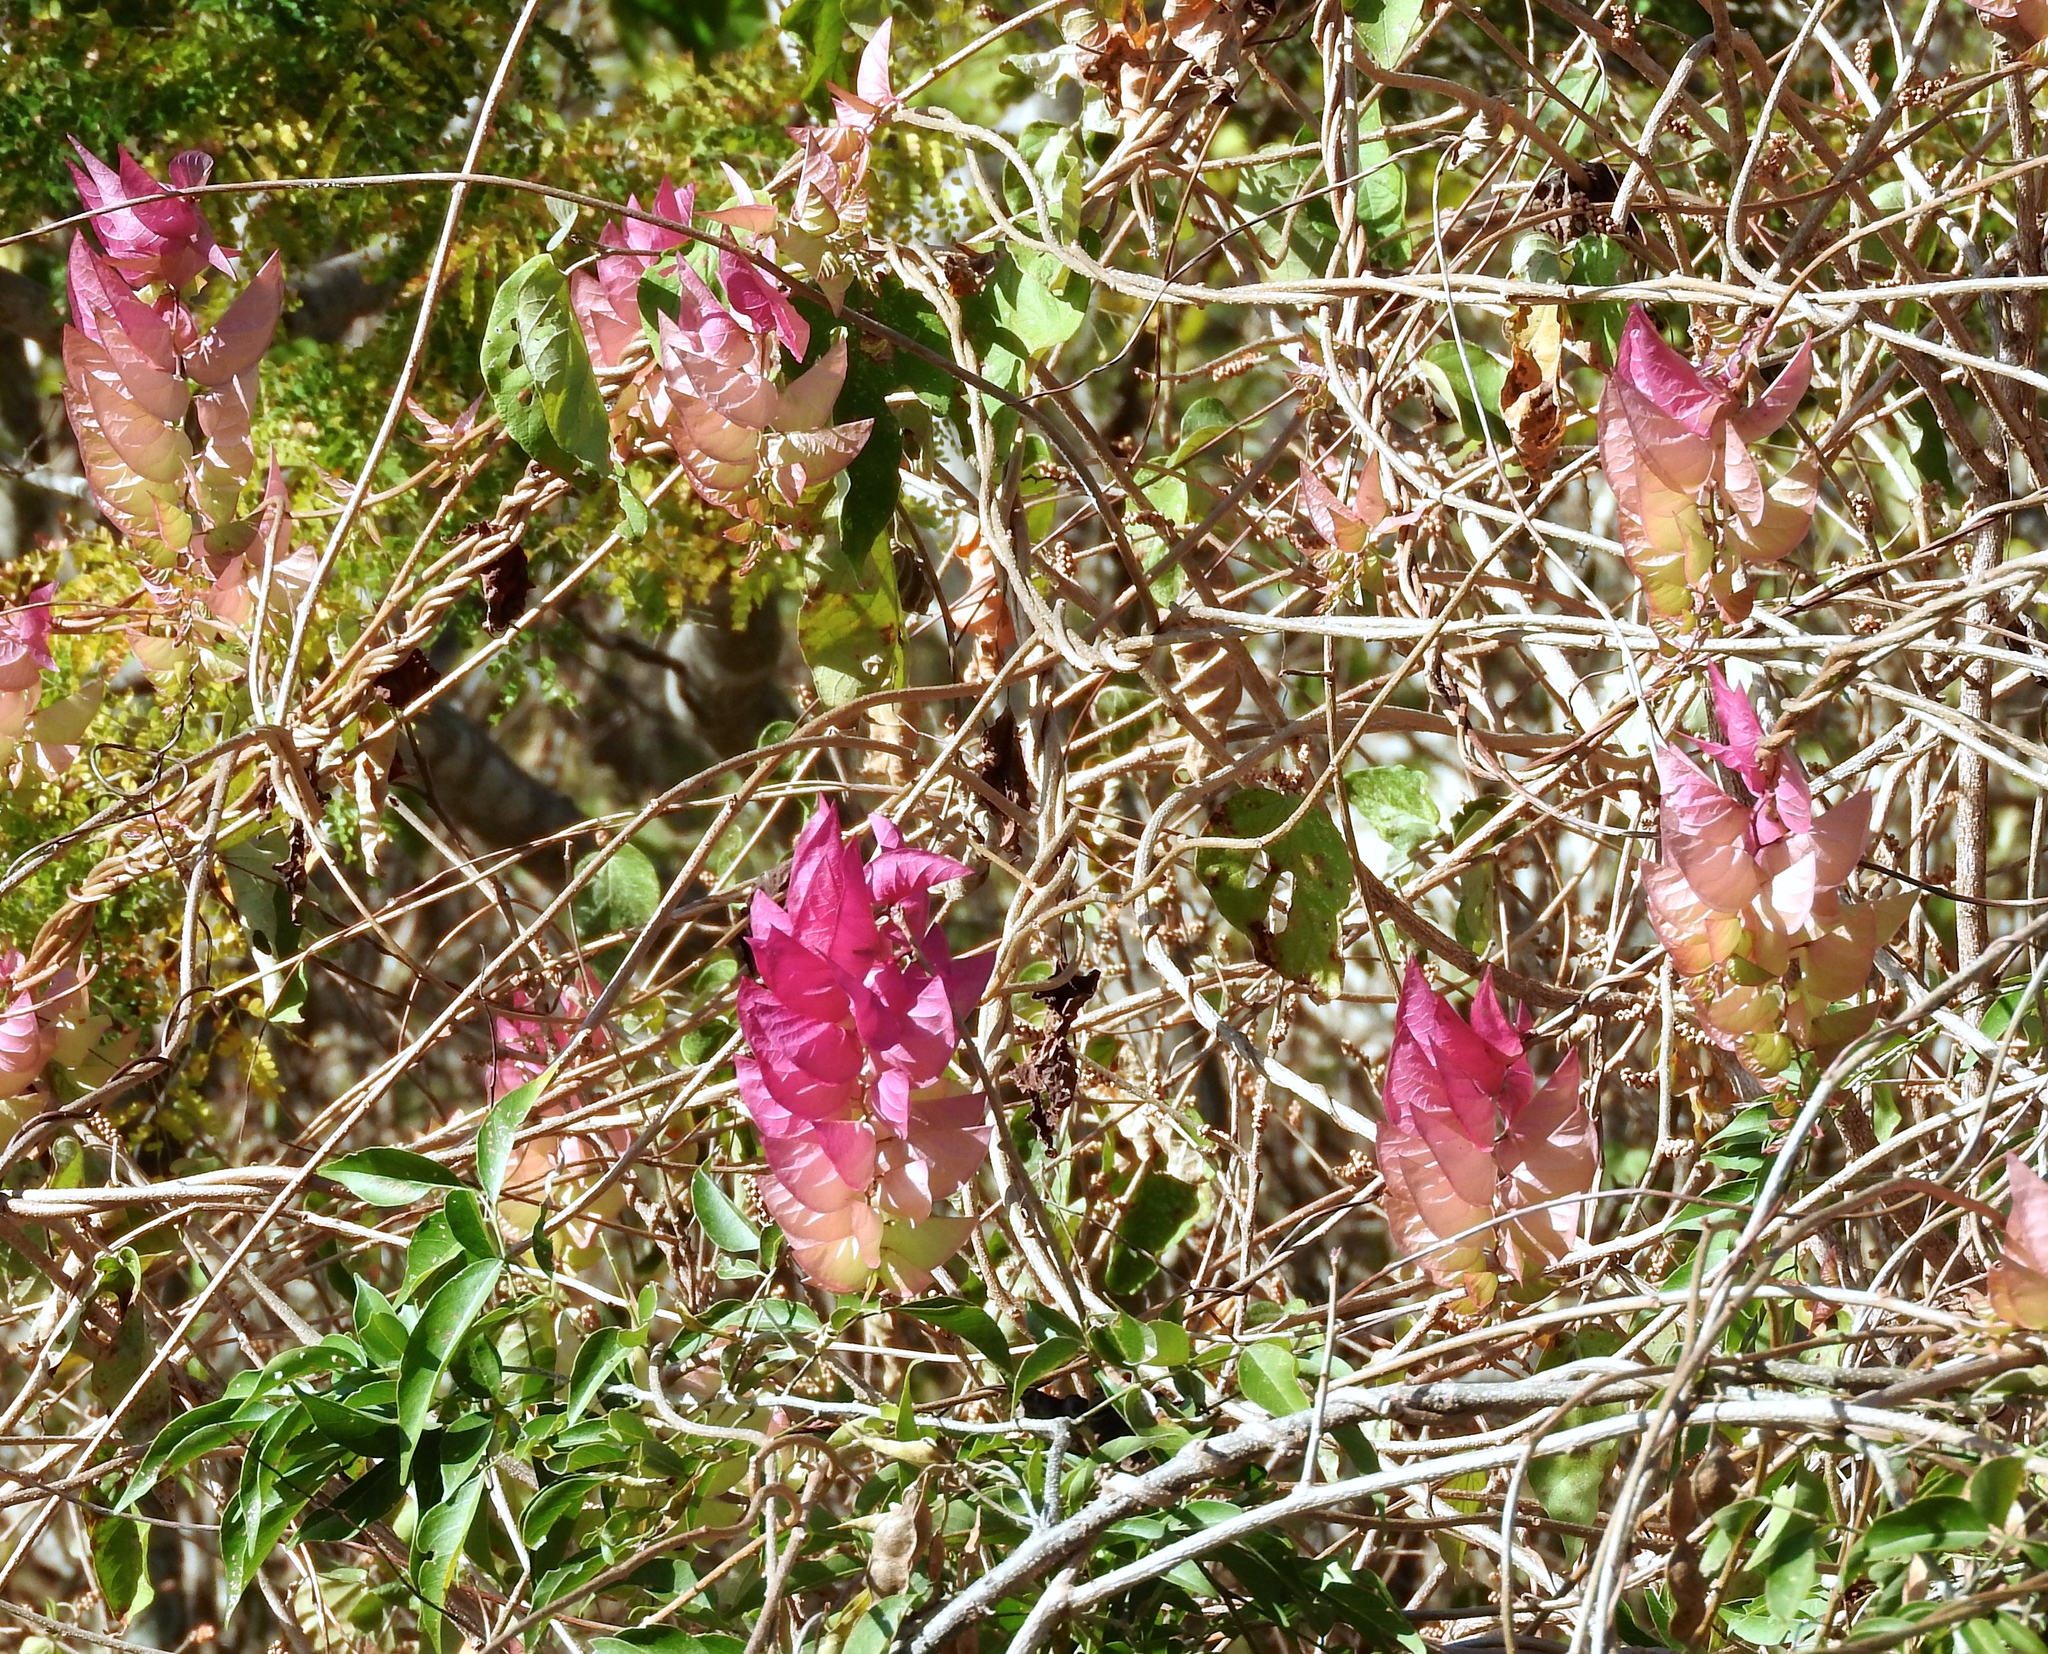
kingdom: Plantae
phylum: Tracheophyta
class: Magnoliopsida
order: Solanales
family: Convolvulaceae
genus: Ipomoea
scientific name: Ipomoea bracteata
